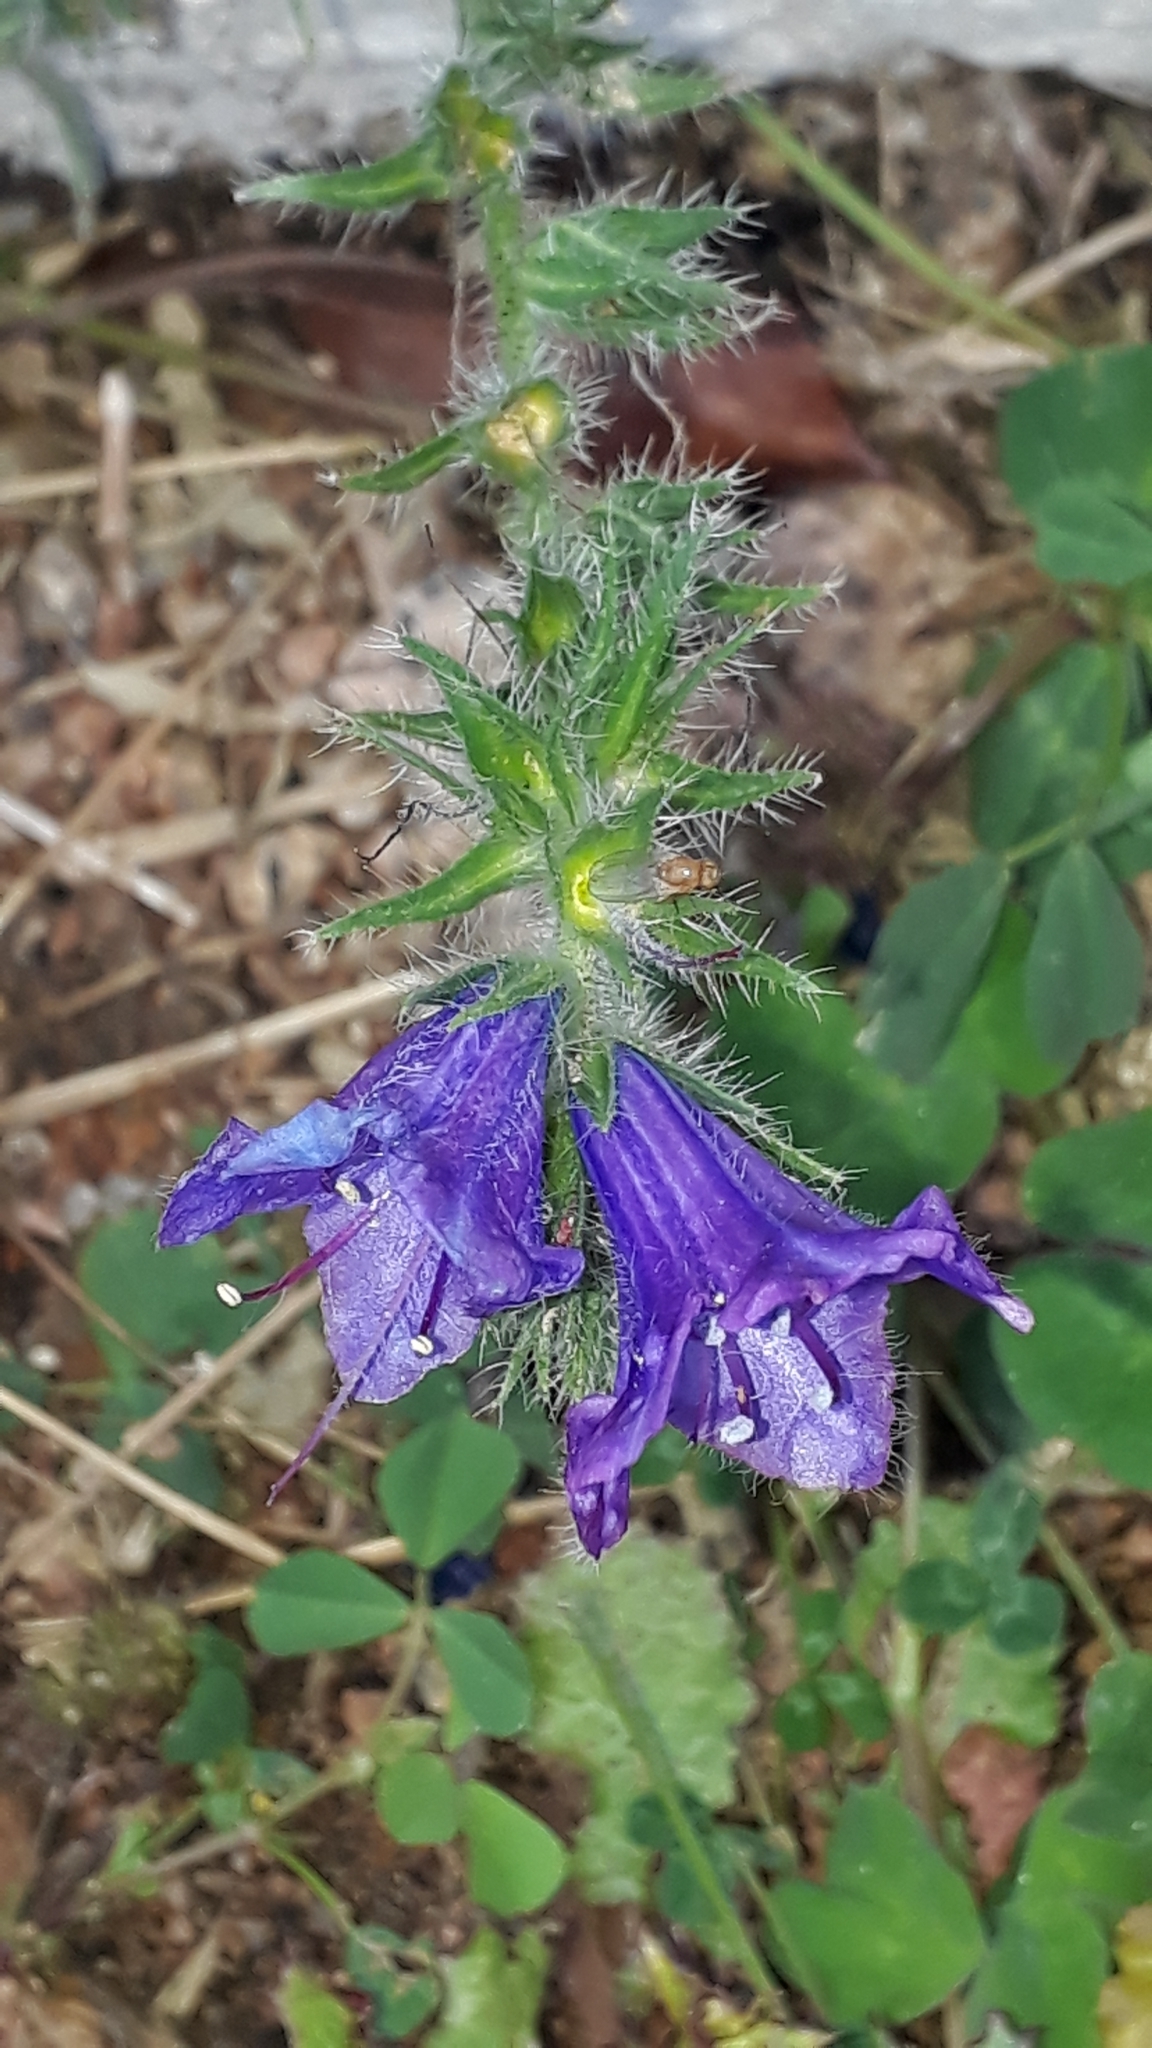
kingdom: Plantae
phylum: Tracheophyta
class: Magnoliopsida
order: Boraginales
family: Boraginaceae
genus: Echium
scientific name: Echium plantagineum
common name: Purple viper's-bugloss
